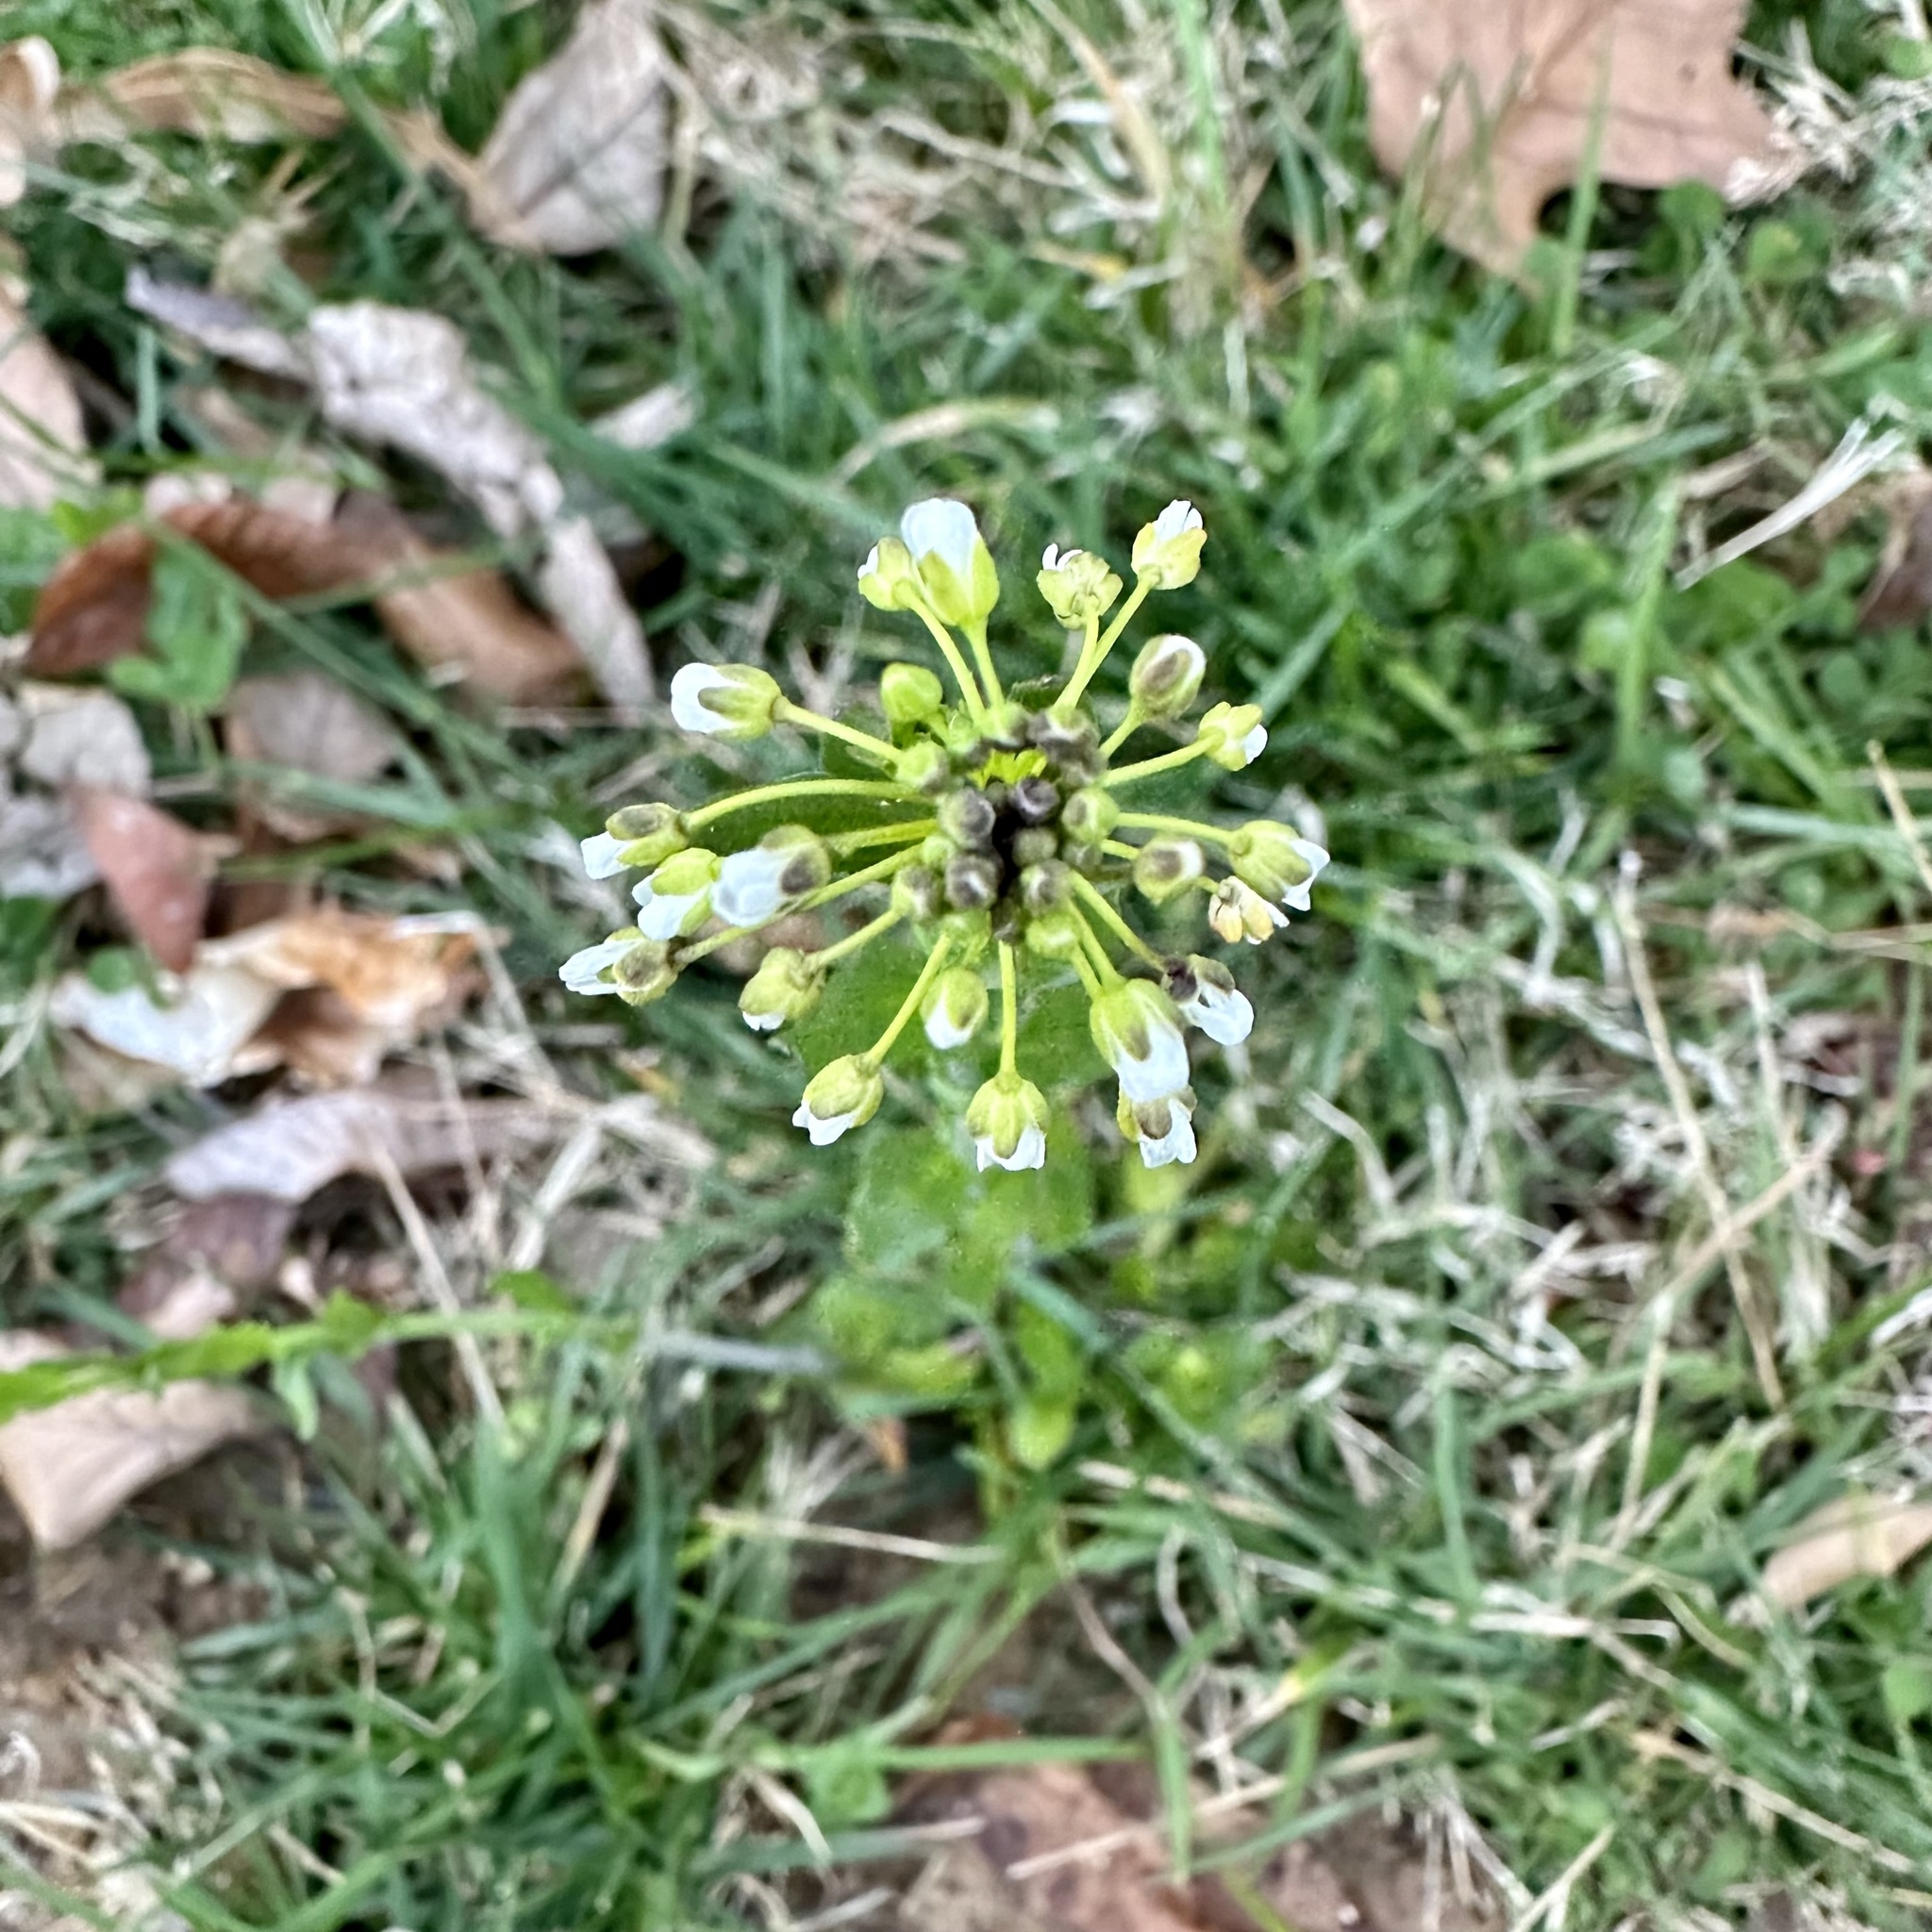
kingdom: Plantae
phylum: Tracheophyta
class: Magnoliopsida
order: Brassicales
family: Brassicaceae
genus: Mummenhoffia
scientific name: Mummenhoffia alliacea
